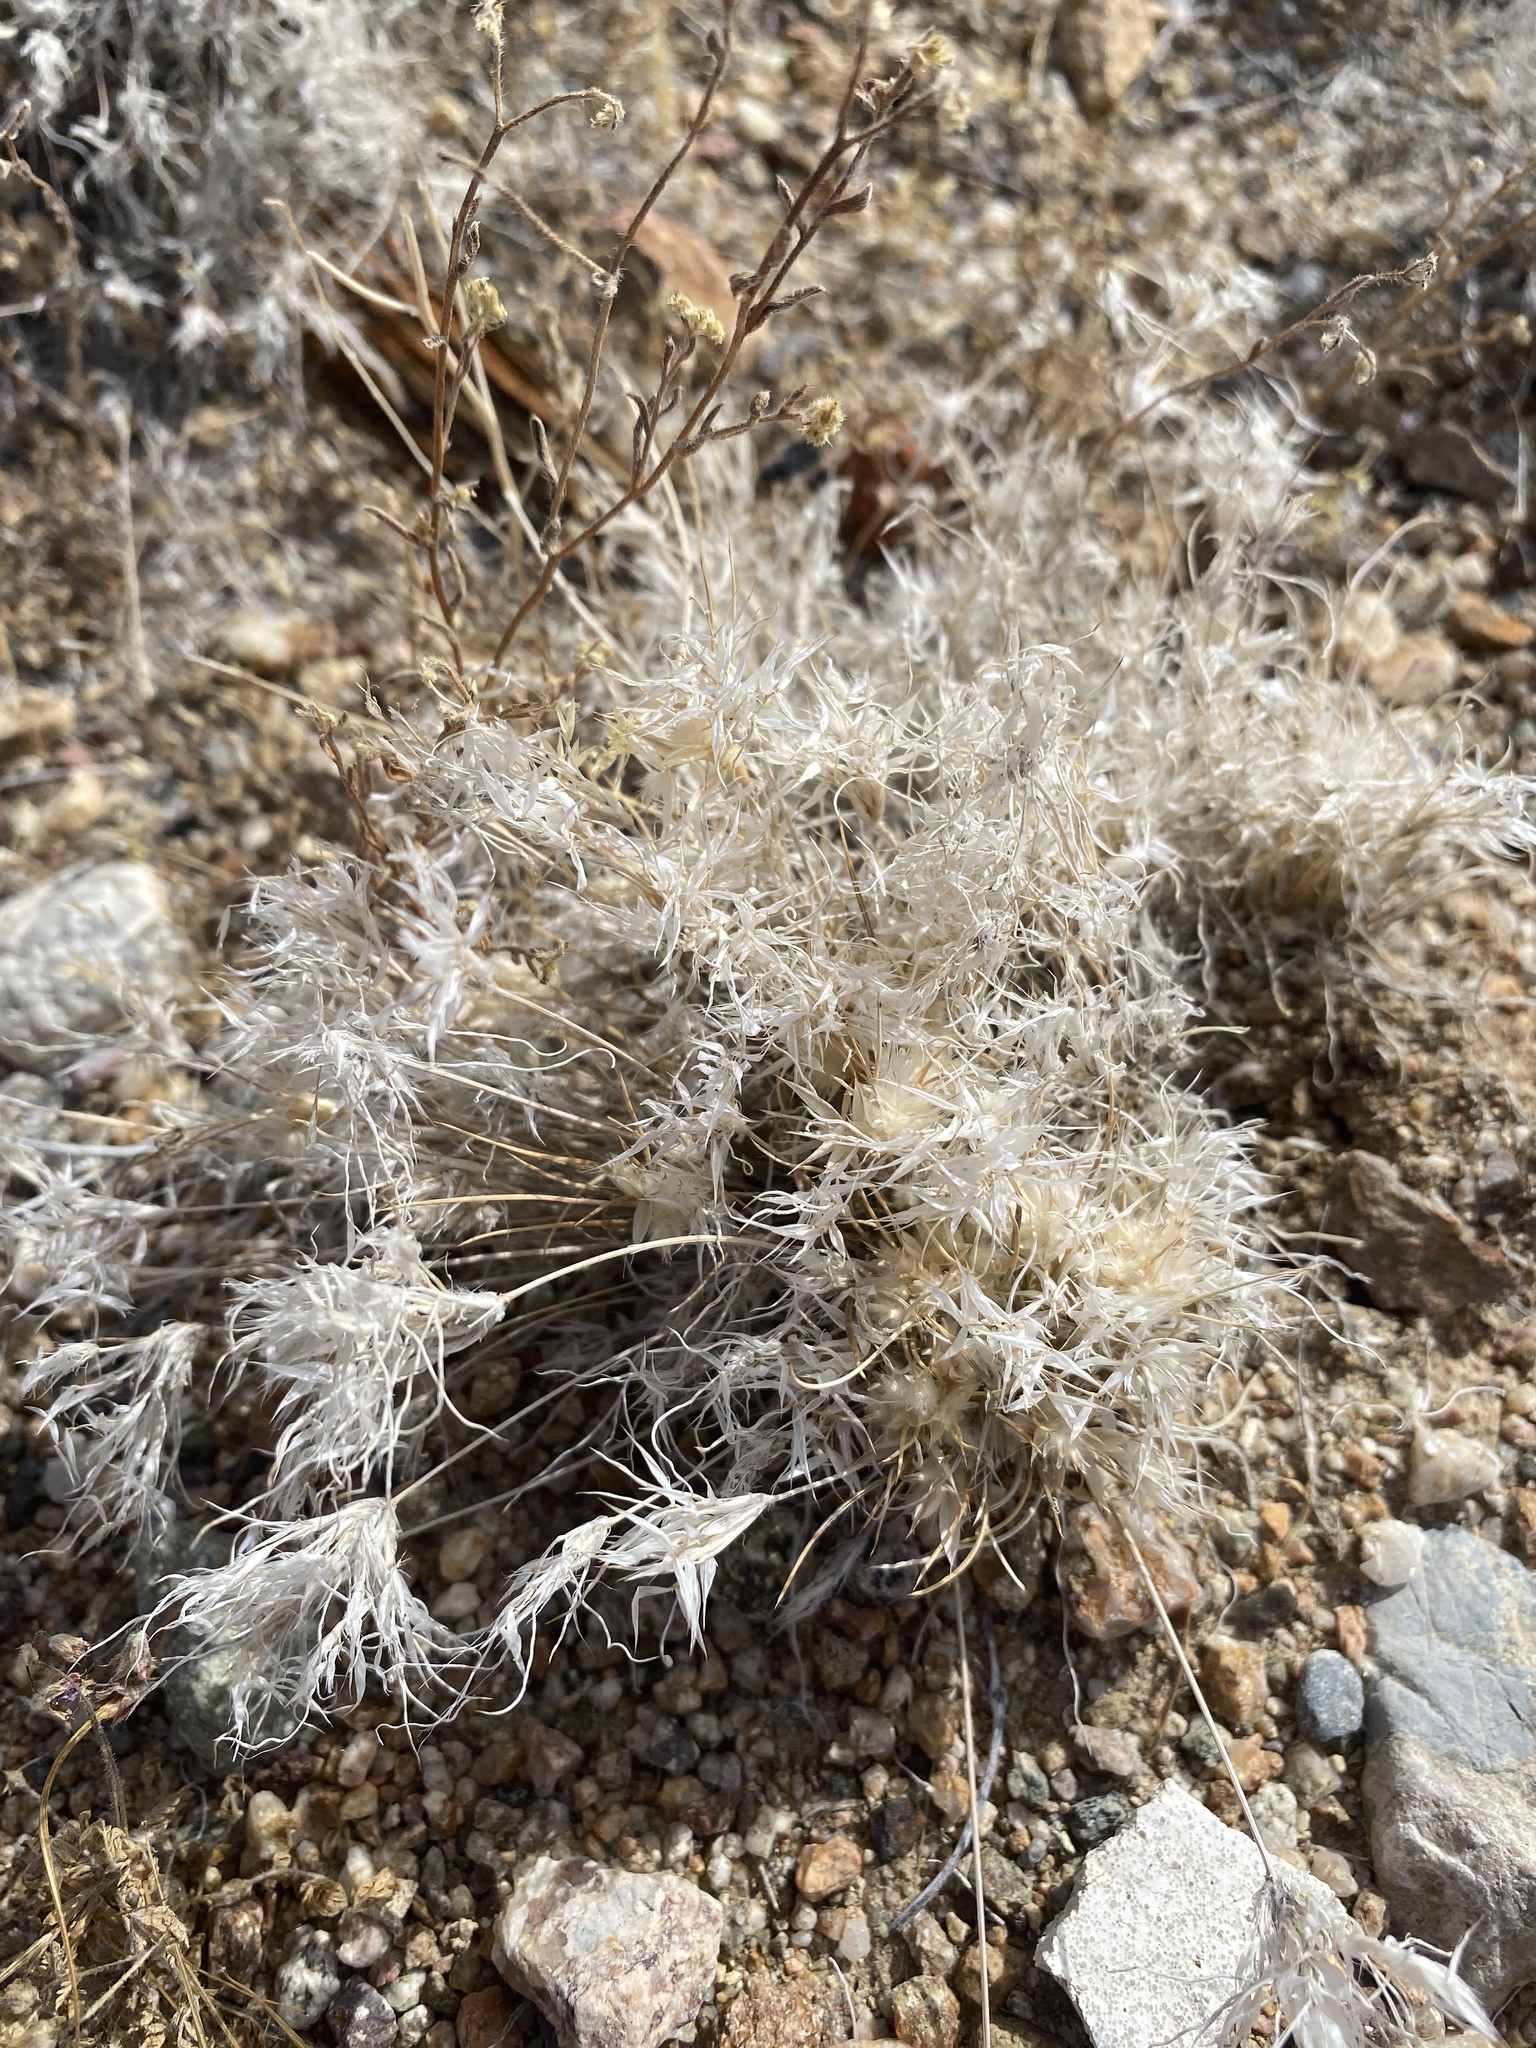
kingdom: Plantae
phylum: Tracheophyta
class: Liliopsida
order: Poales
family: Poaceae
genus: Dasyochloa
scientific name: Dasyochloa pulchella
